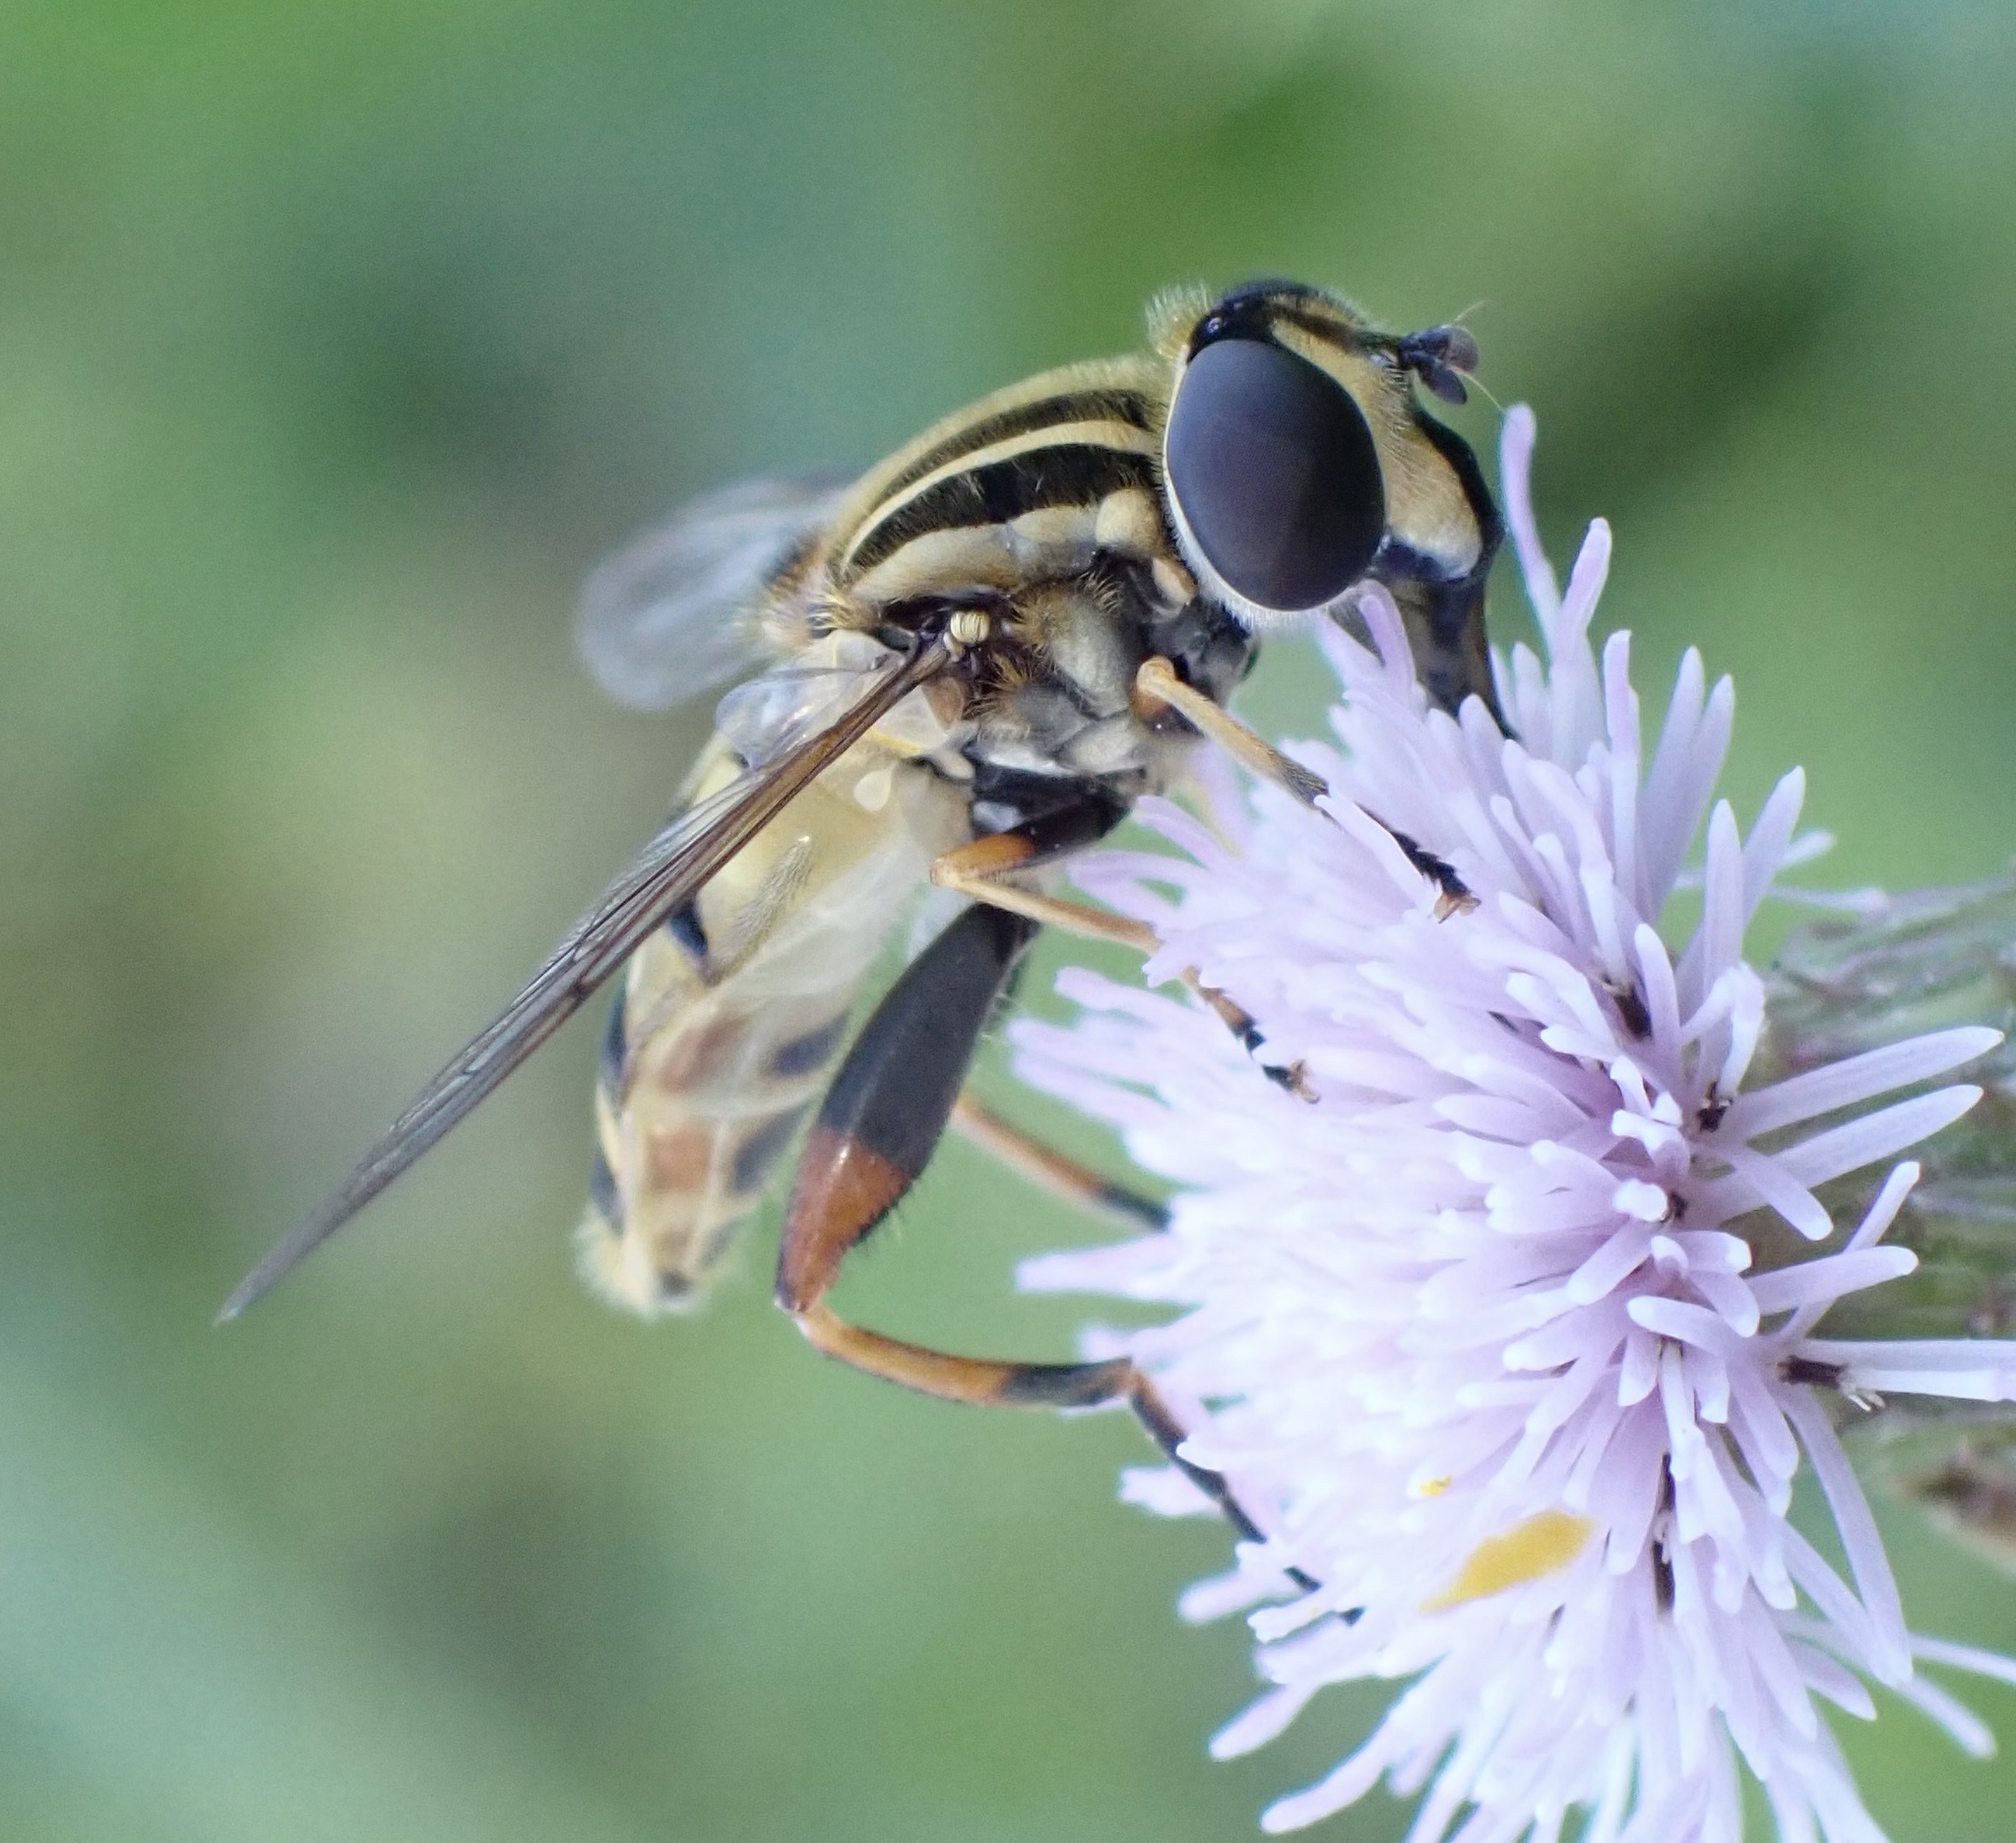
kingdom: Animalia
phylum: Arthropoda
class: Insecta
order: Diptera
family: Syrphidae
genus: Helophilus
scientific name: Helophilus pendulus
